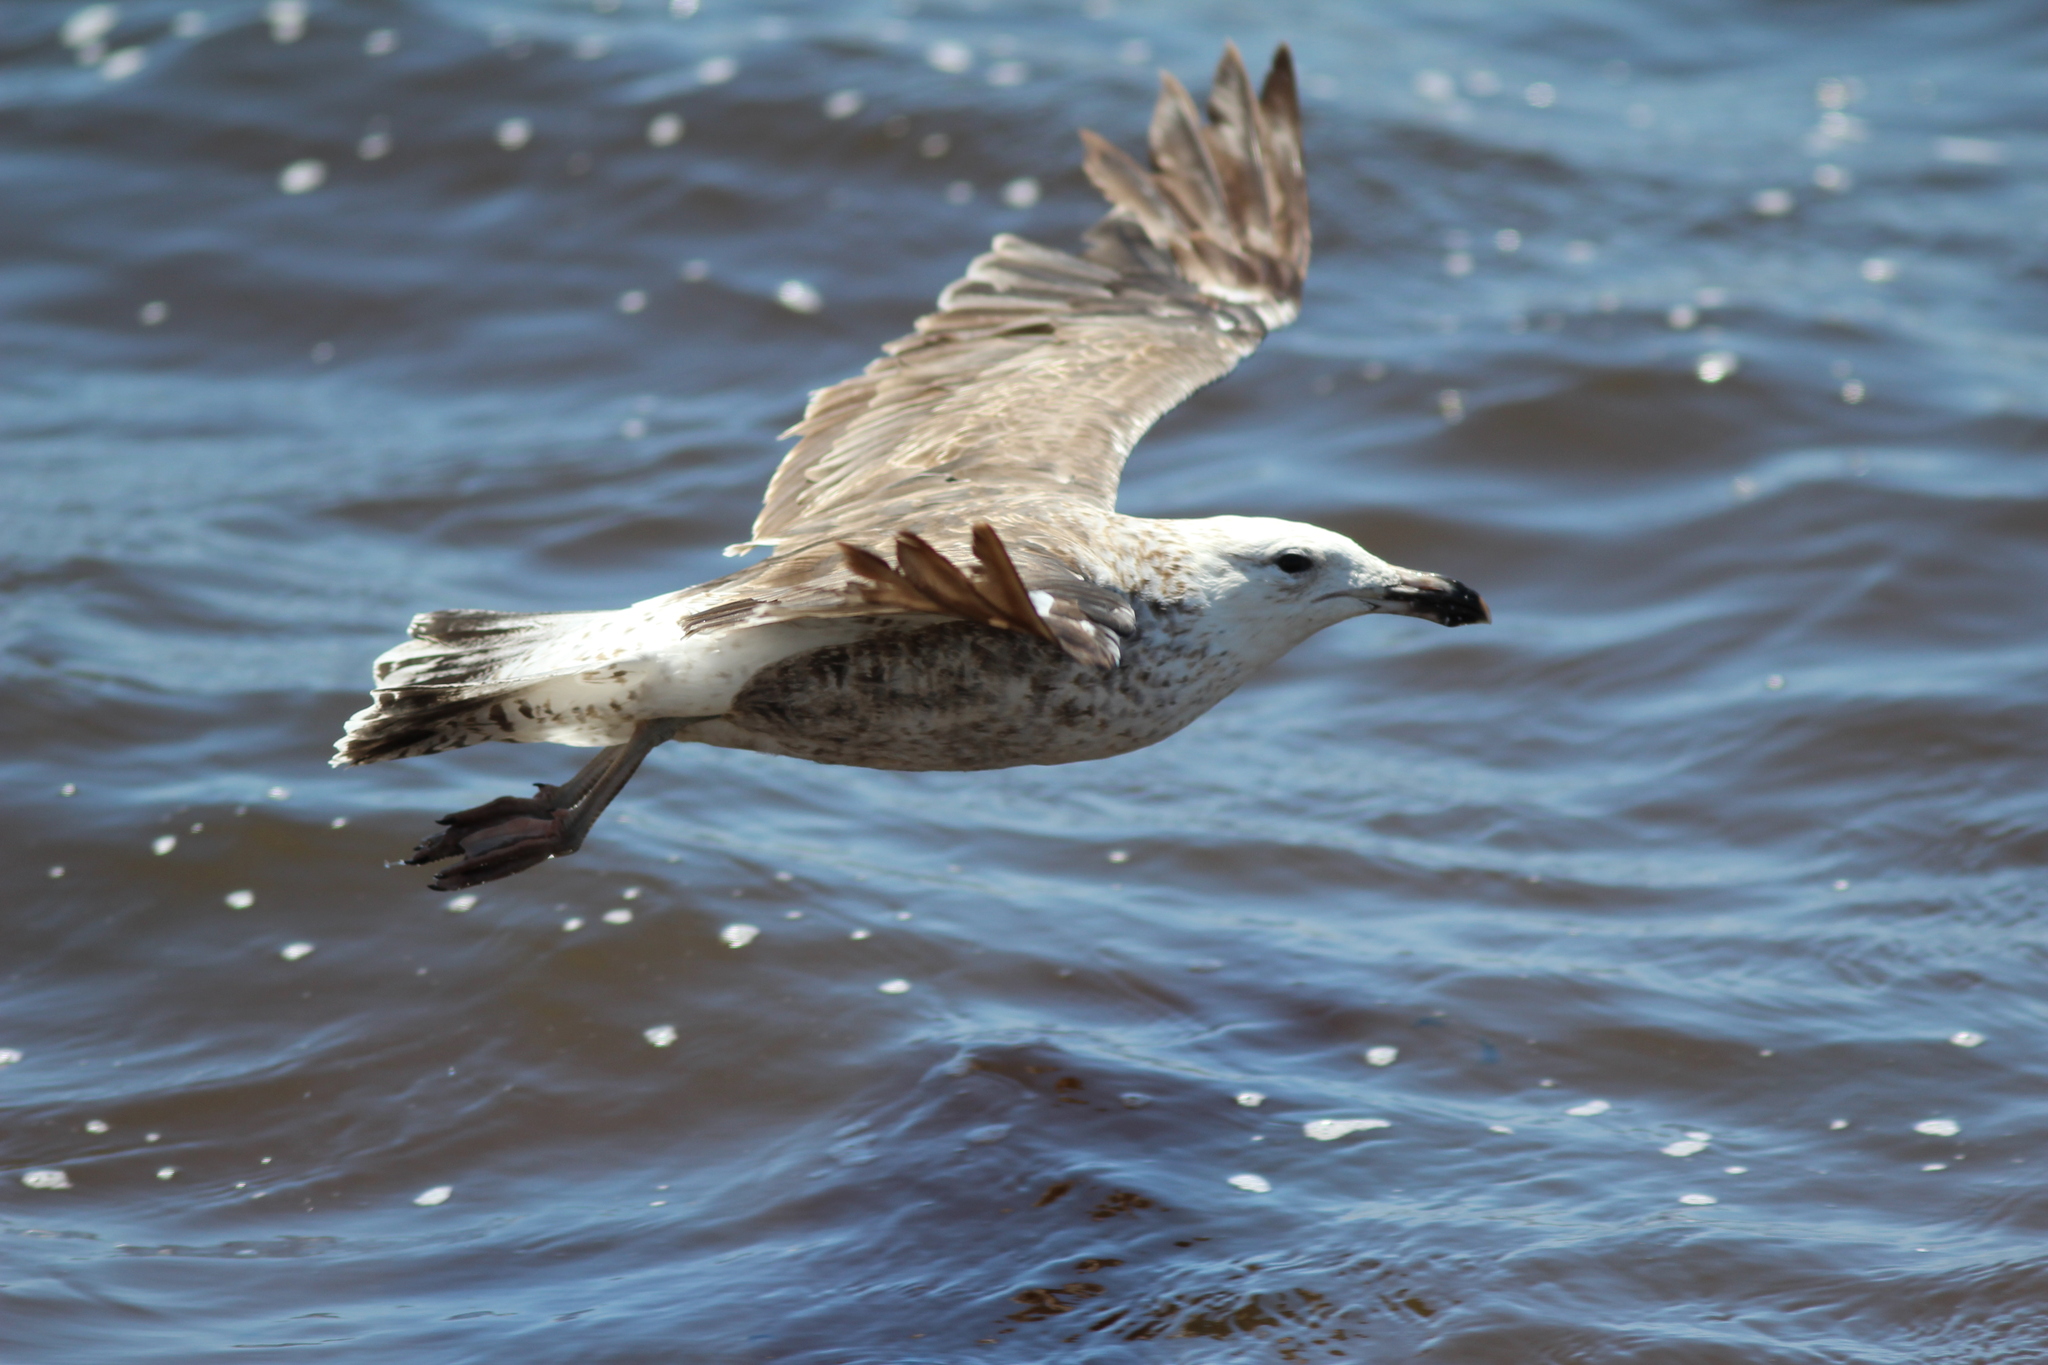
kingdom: Animalia
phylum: Chordata
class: Aves
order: Charadriiformes
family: Laridae
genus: Larus
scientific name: Larus dominicanus
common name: Kelp gull
